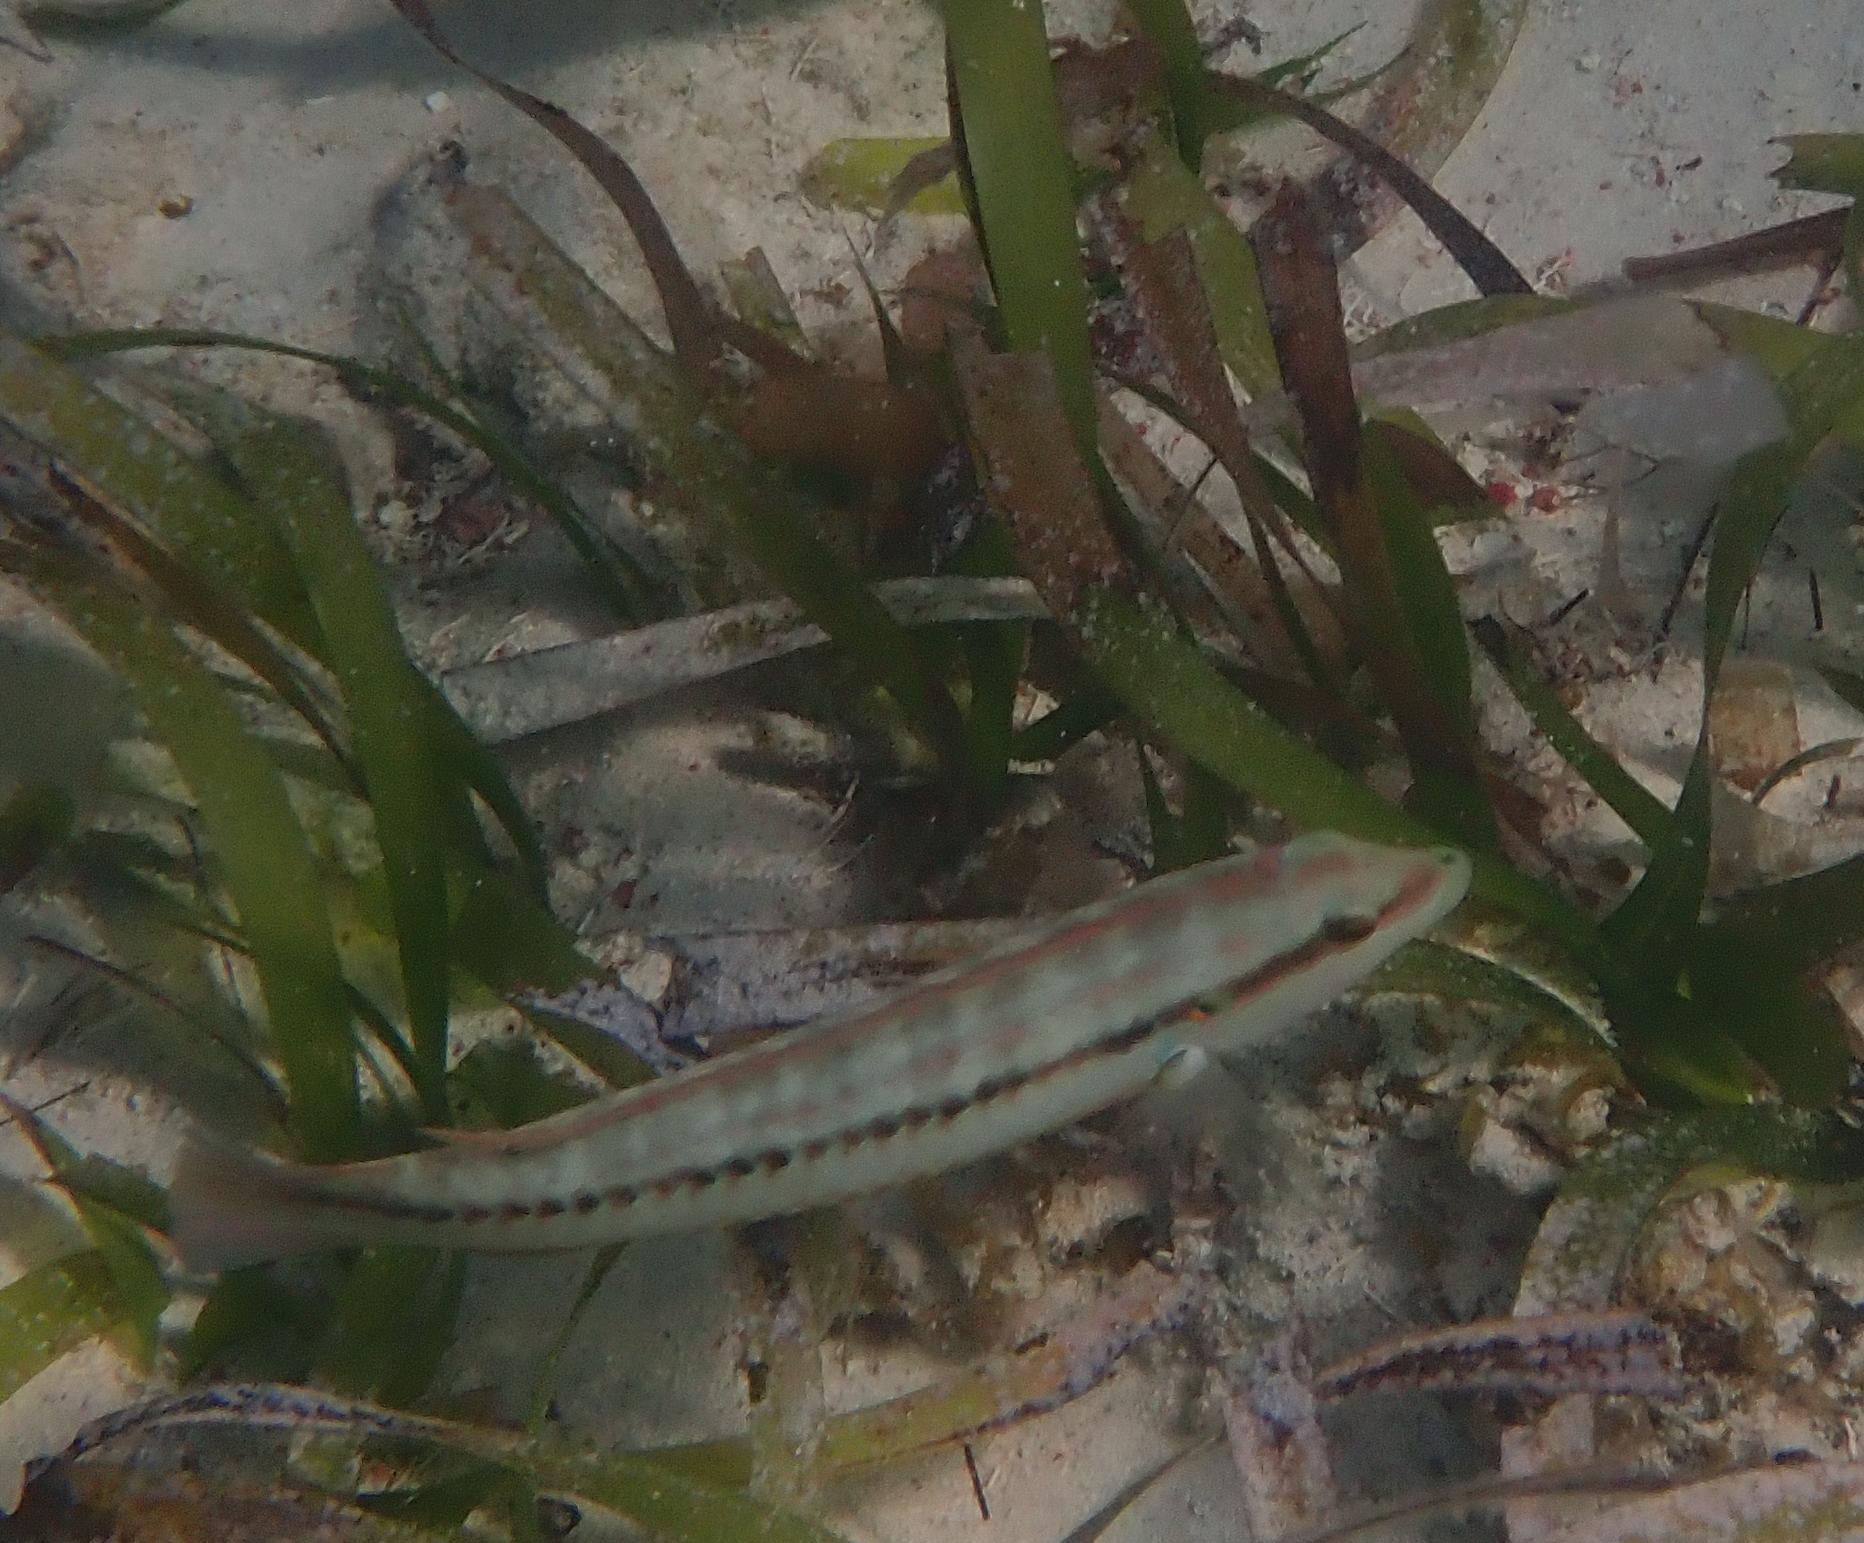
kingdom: Animalia
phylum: Chordata
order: Perciformes
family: Labridae
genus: Halichoeres
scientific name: Halichoeres bivittatus
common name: Slippery dick
